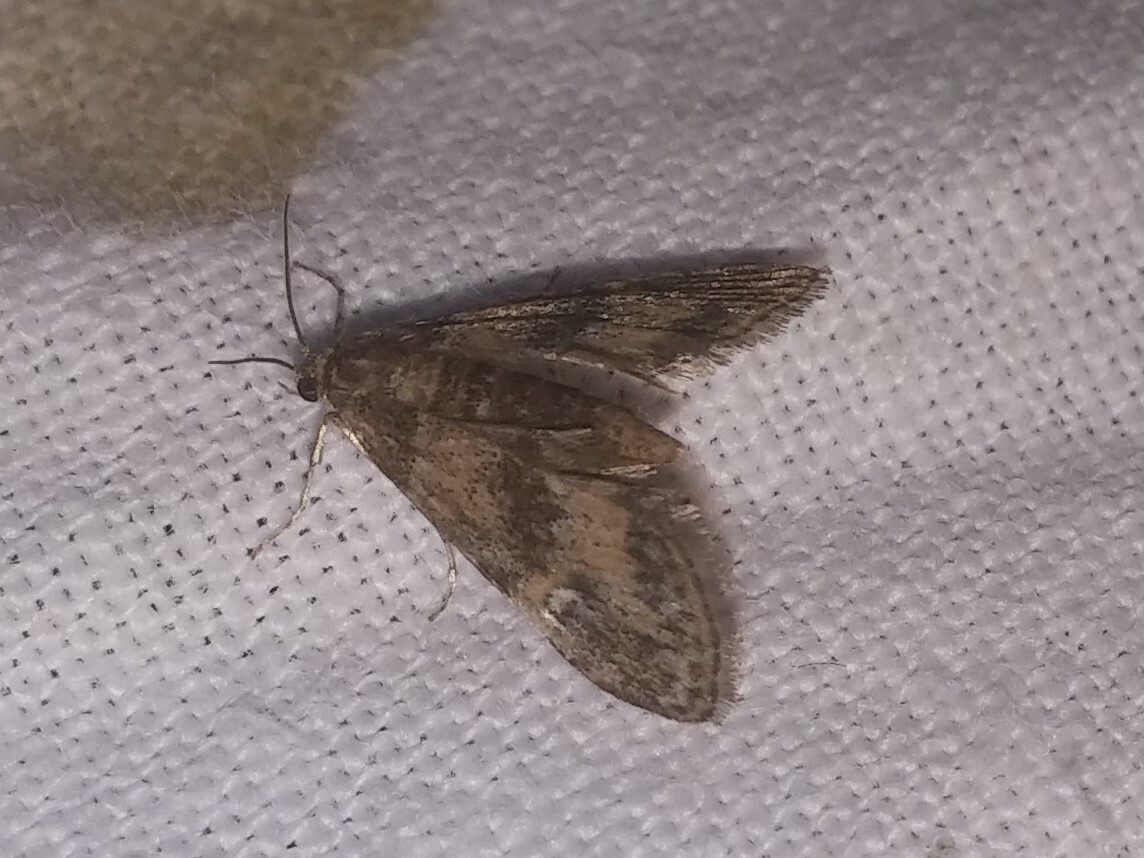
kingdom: Animalia
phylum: Arthropoda
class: Insecta
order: Lepidoptera
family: Crambidae
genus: Elophila
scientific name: Elophila obliteralis
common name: Waterlily leafcutter moth
